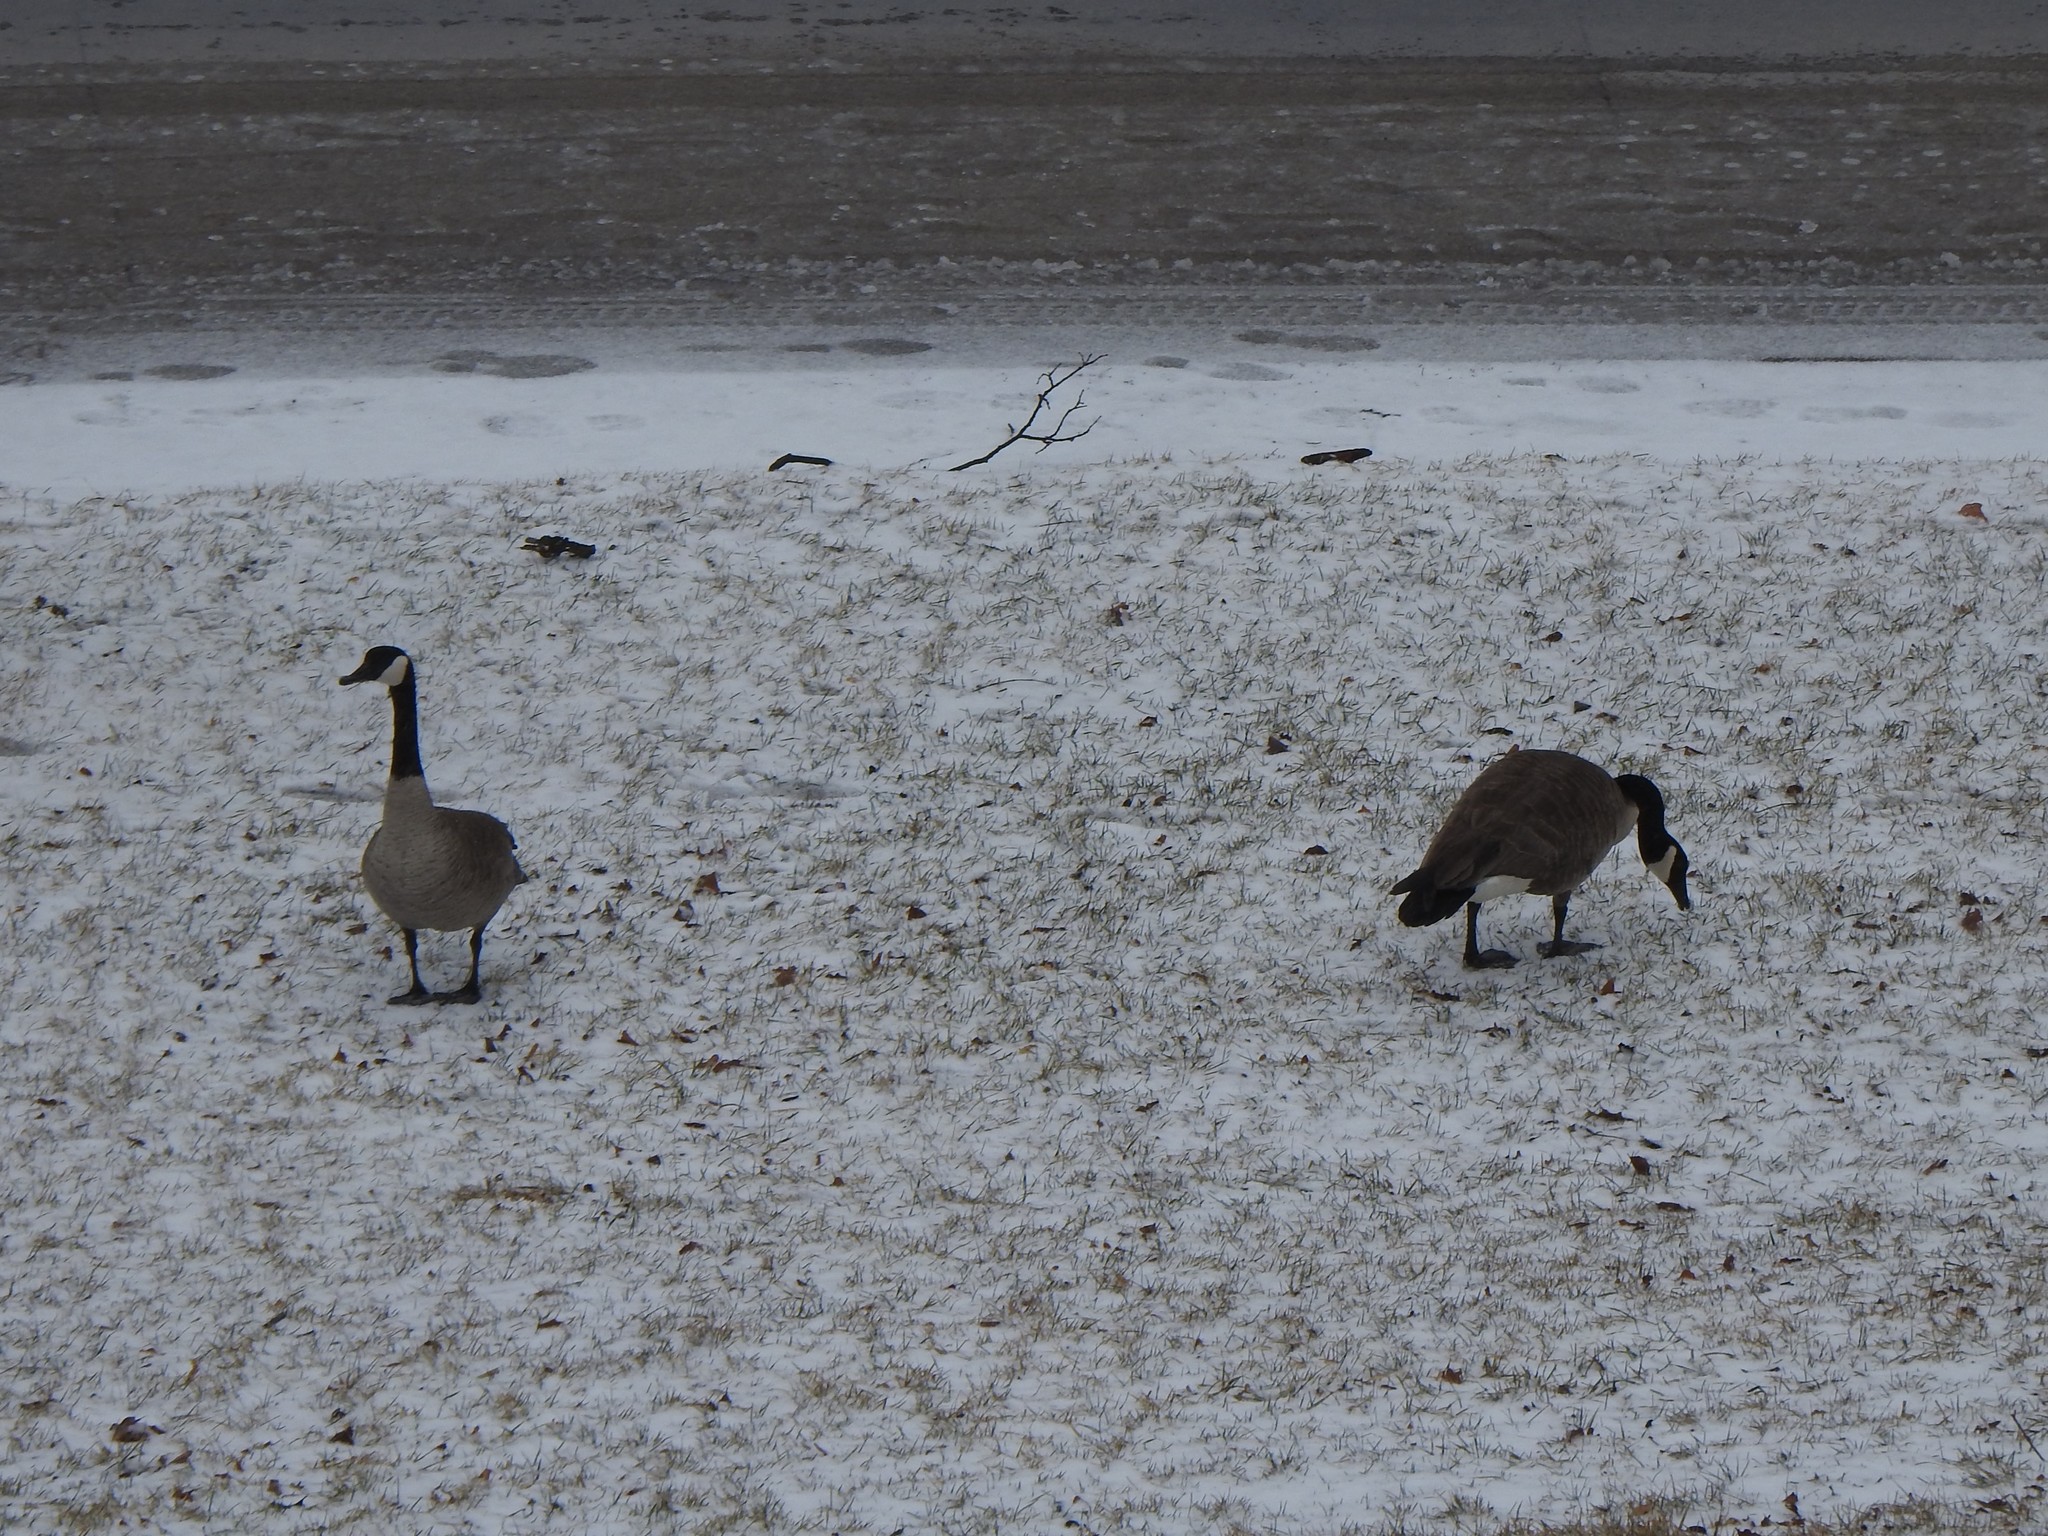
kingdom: Animalia
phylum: Chordata
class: Aves
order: Anseriformes
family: Anatidae
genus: Branta
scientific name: Branta canadensis
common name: Canada goose
